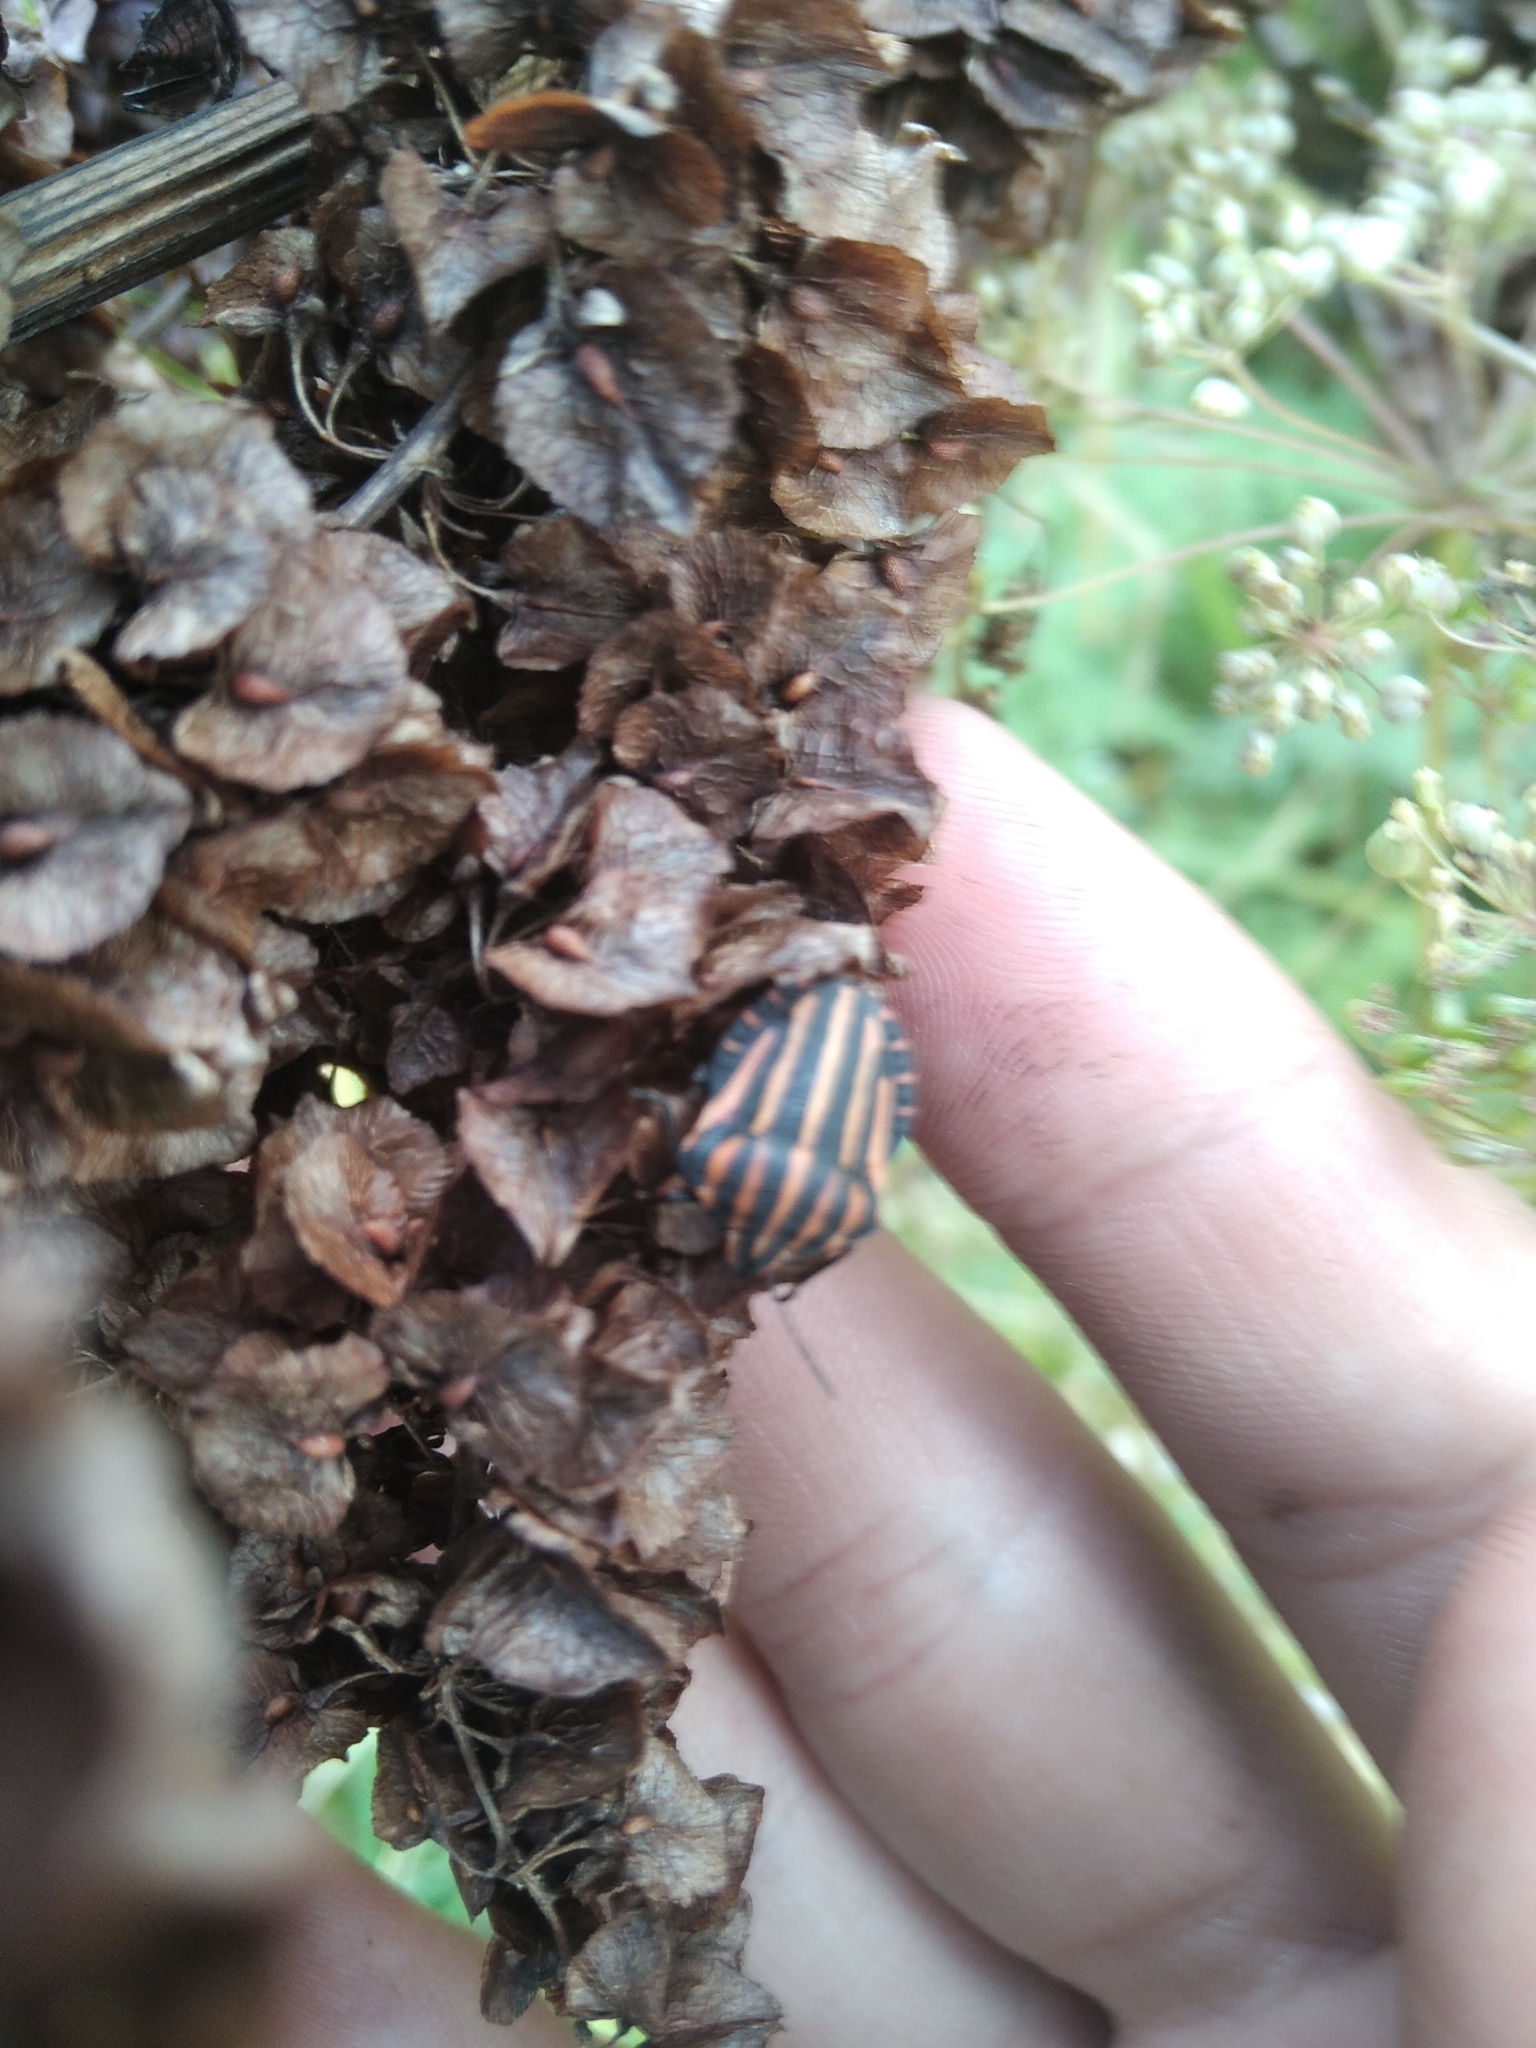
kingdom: Animalia
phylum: Arthropoda
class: Insecta
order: Hemiptera
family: Pentatomidae
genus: Graphosoma
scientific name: Graphosoma italicum
